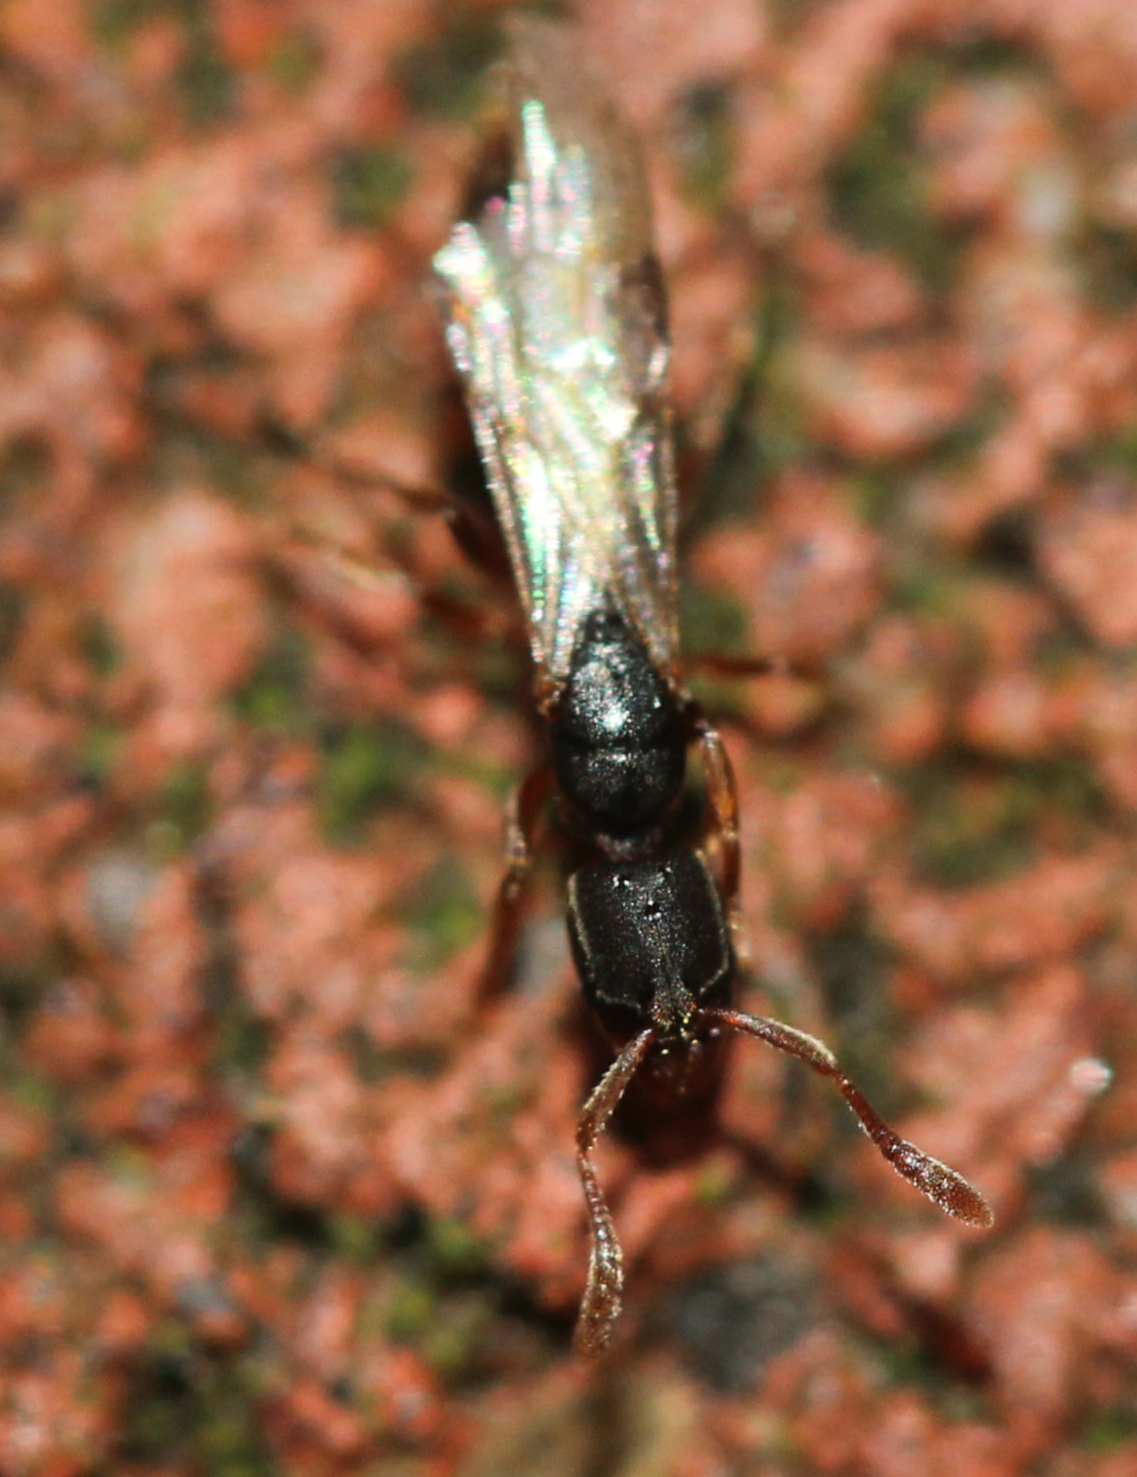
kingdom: Animalia
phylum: Arthropoda
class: Insecta
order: Hymenoptera
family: Formicidae
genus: Ponera
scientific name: Ponera pennsylvanica
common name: Pennsylvania ponera
